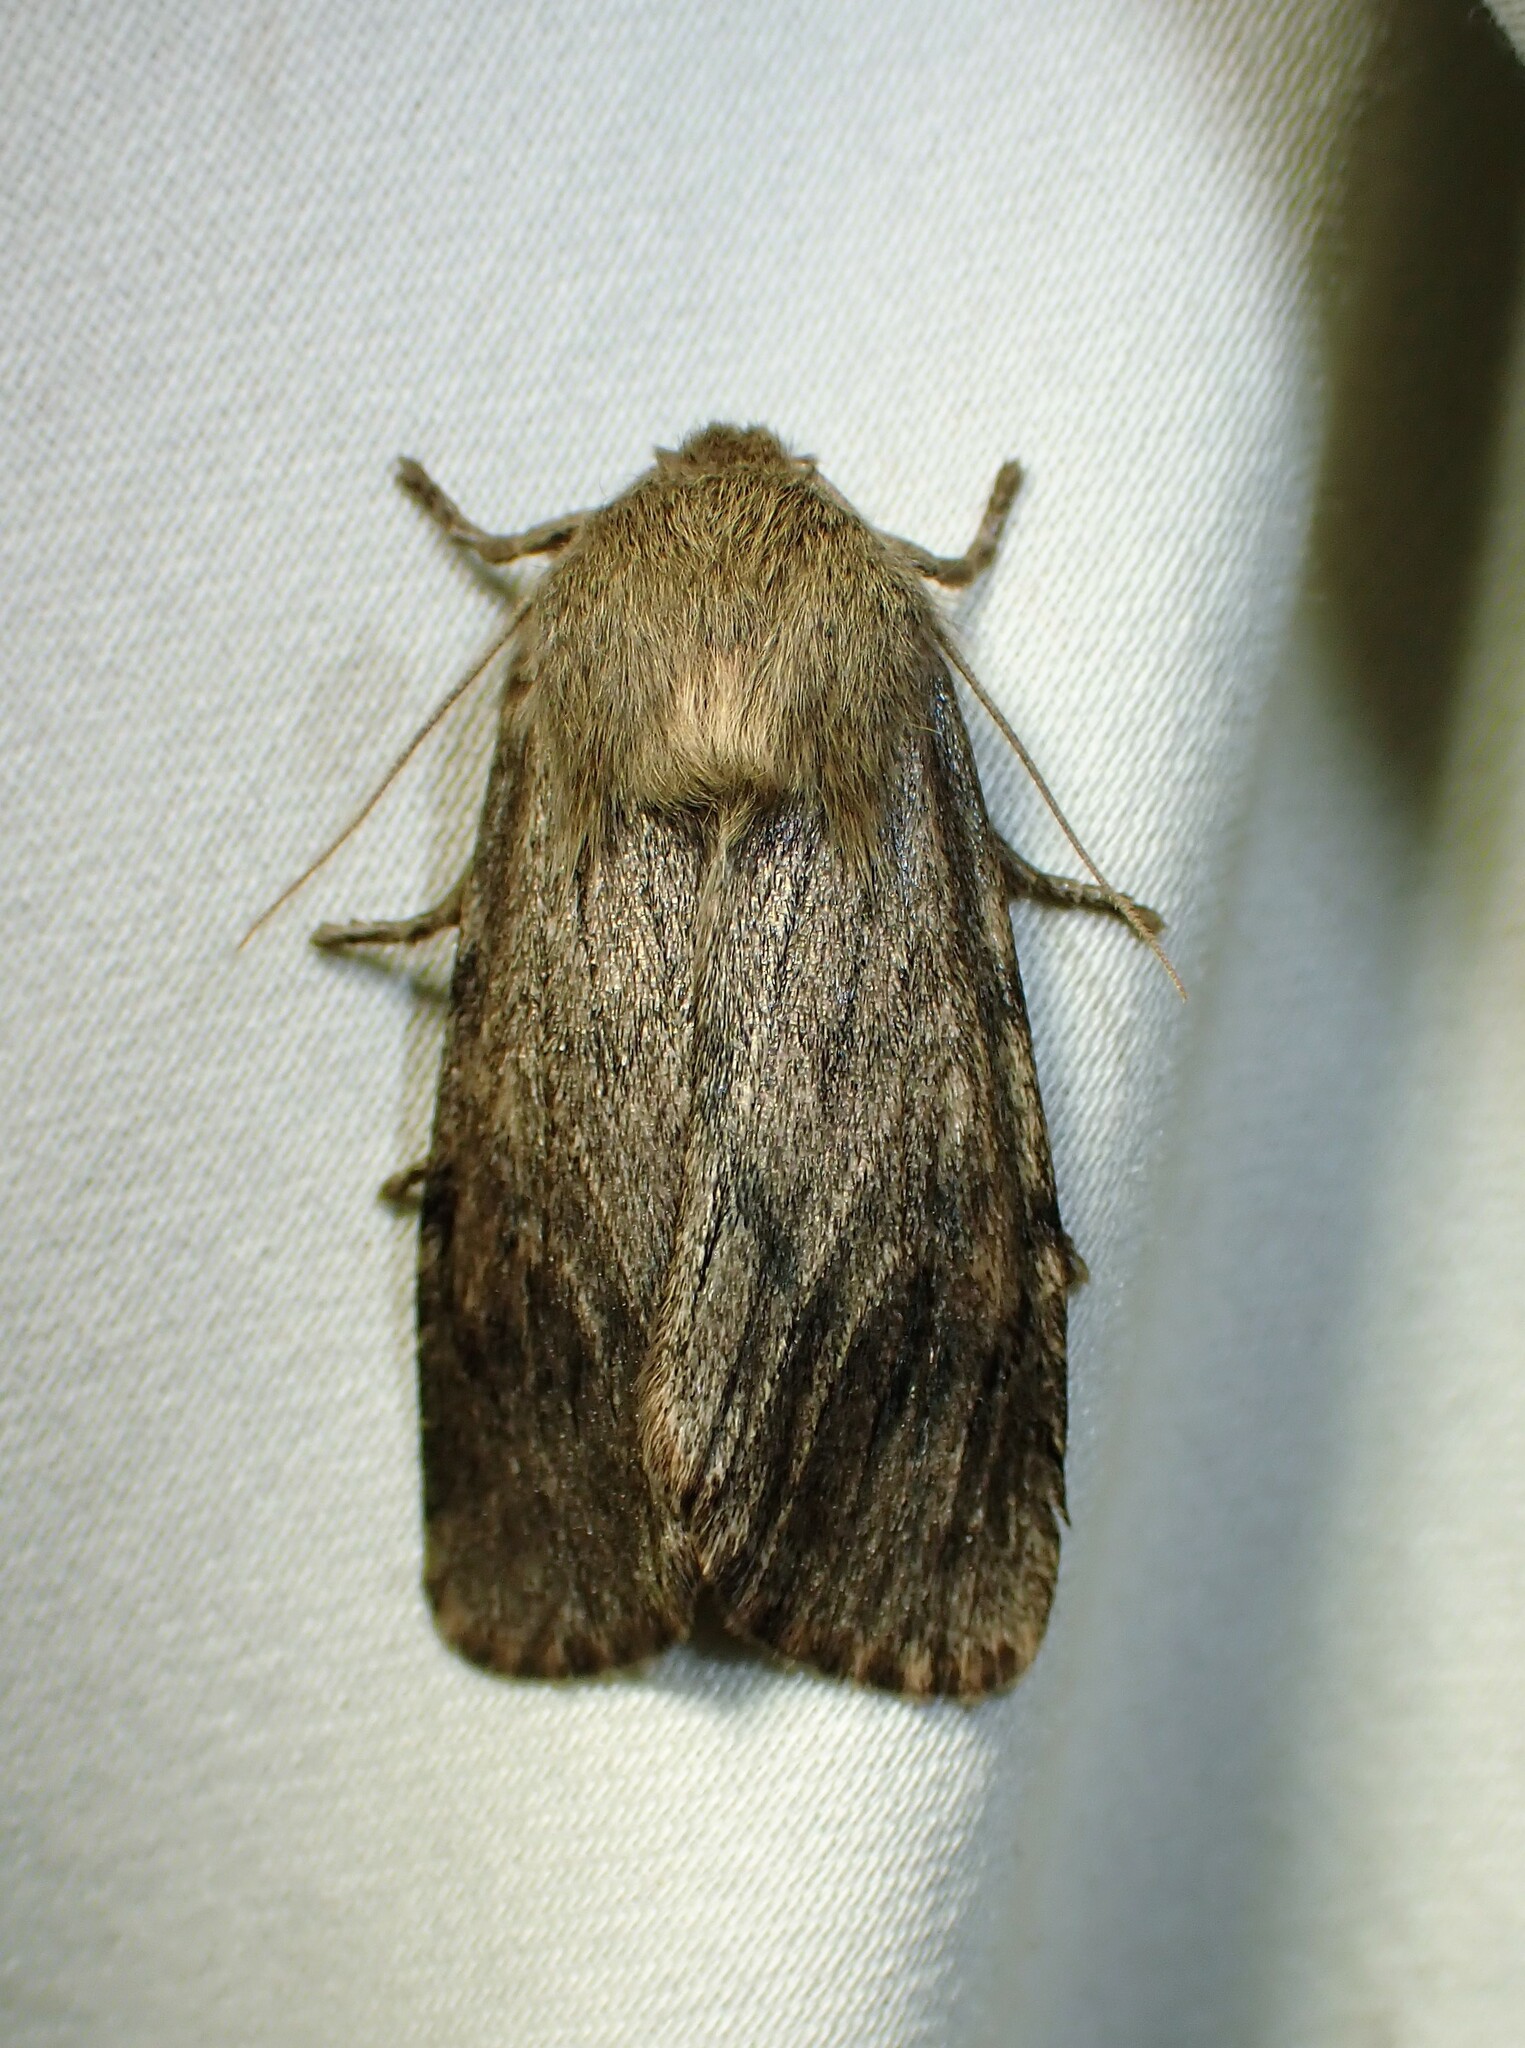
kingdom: Animalia
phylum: Arthropoda
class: Insecta
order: Lepidoptera
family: Noctuidae
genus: Ufeus
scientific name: Ufeus satyricus
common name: Brown satyr moth
